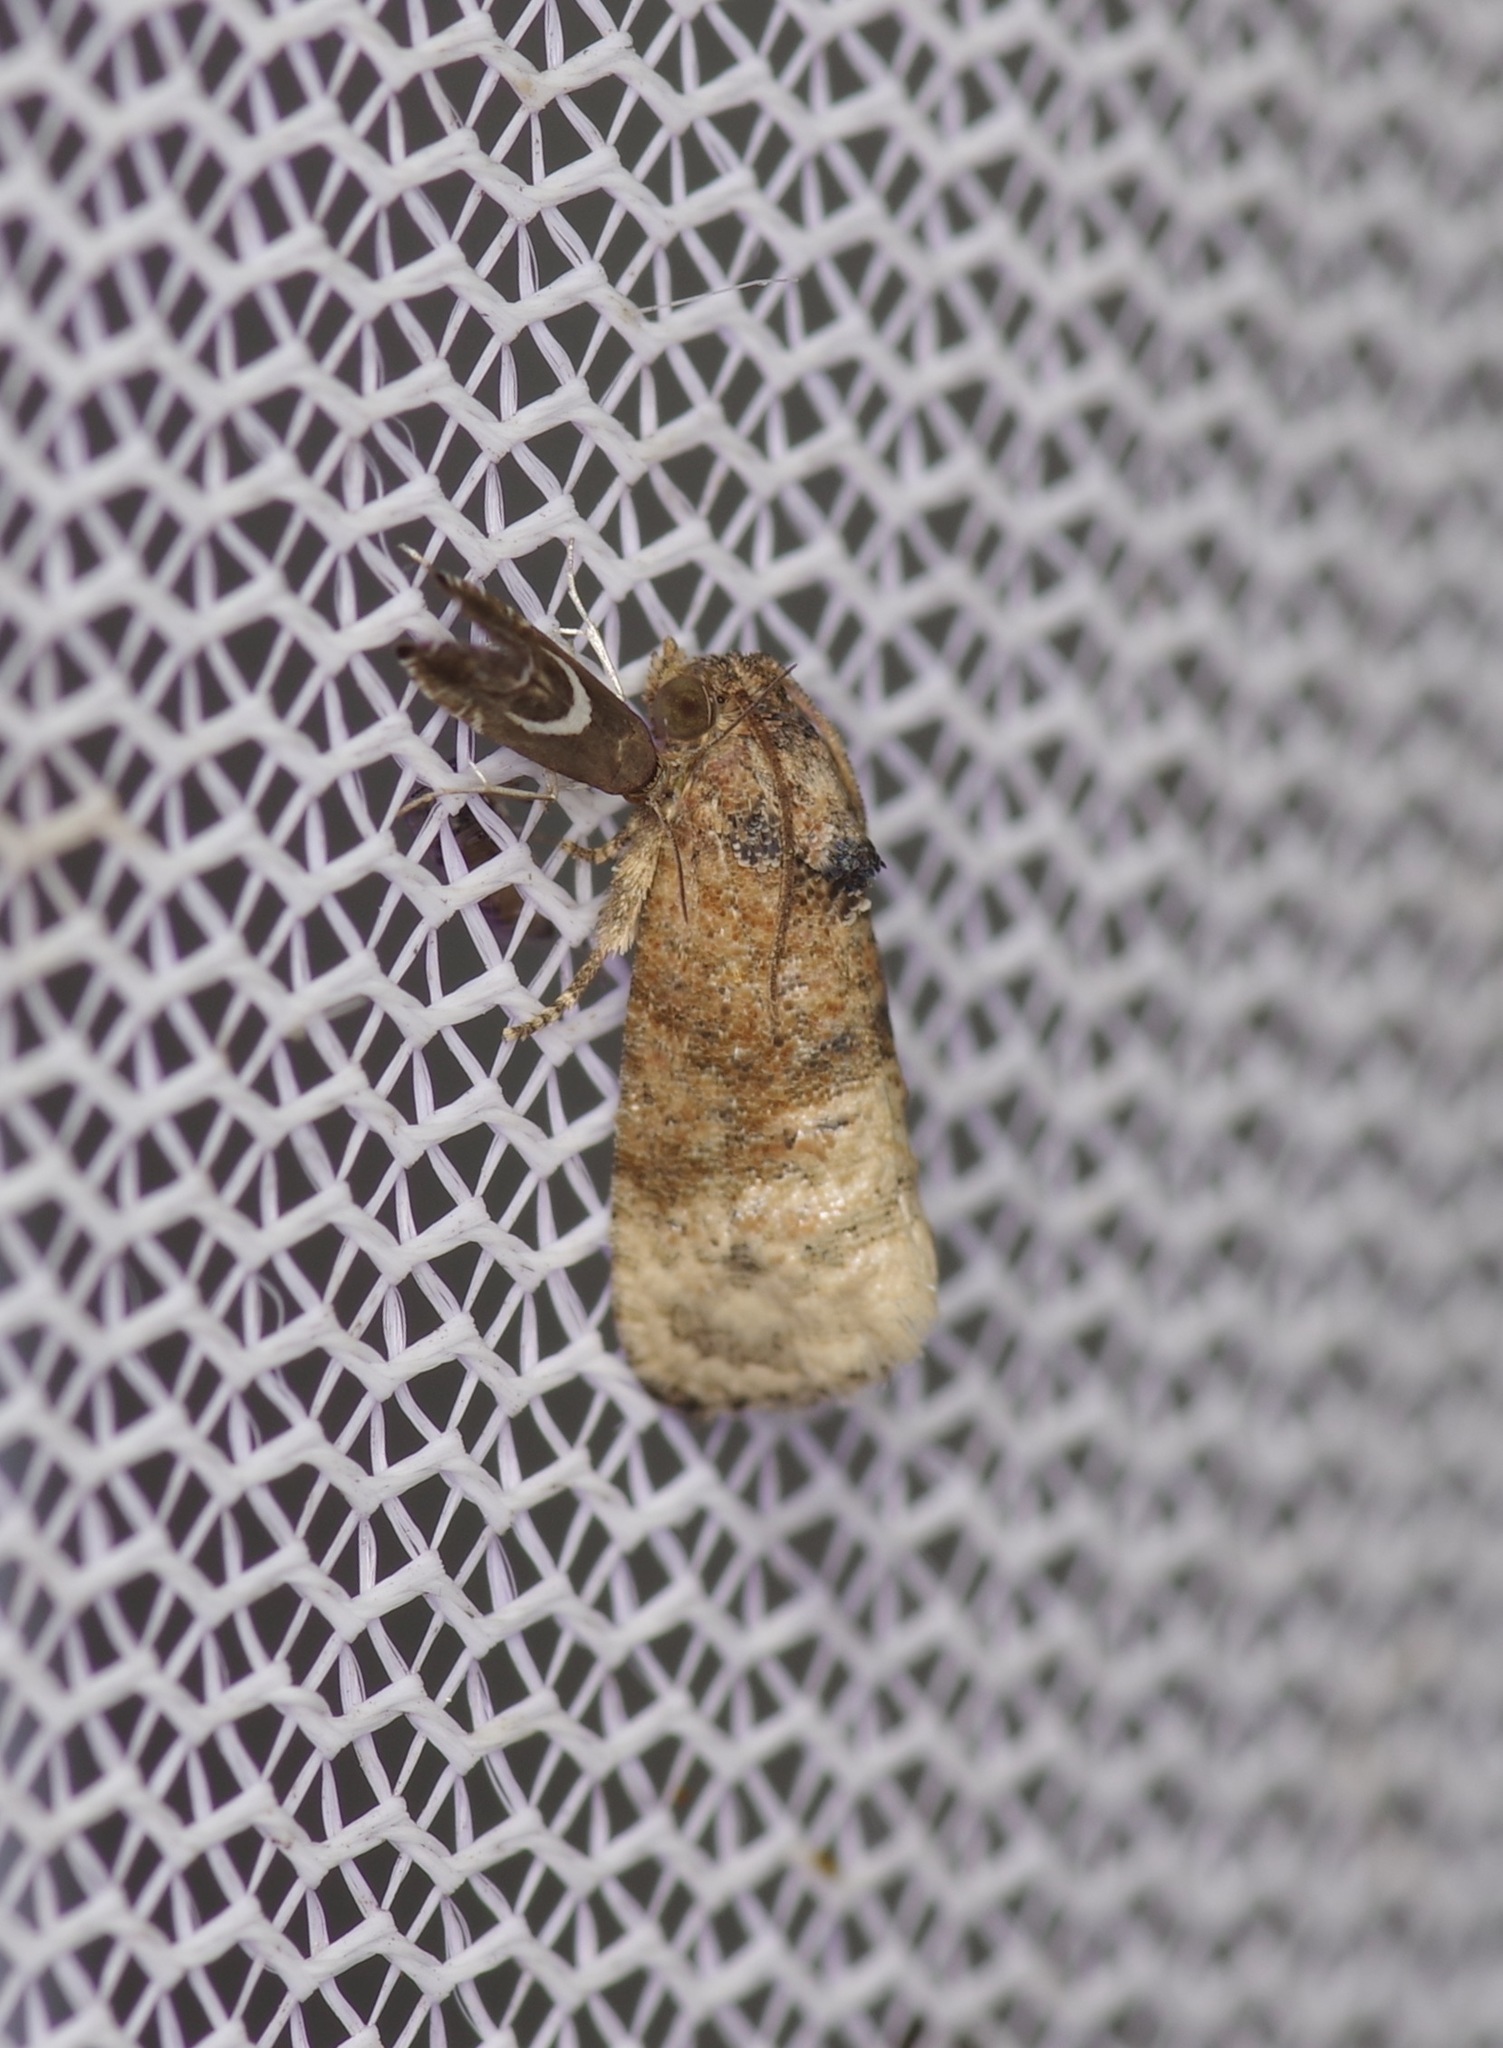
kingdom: Animalia
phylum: Arthropoda
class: Insecta
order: Lepidoptera
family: Tortricidae
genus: Ecdytolopha
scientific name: Ecdytolopha mana
